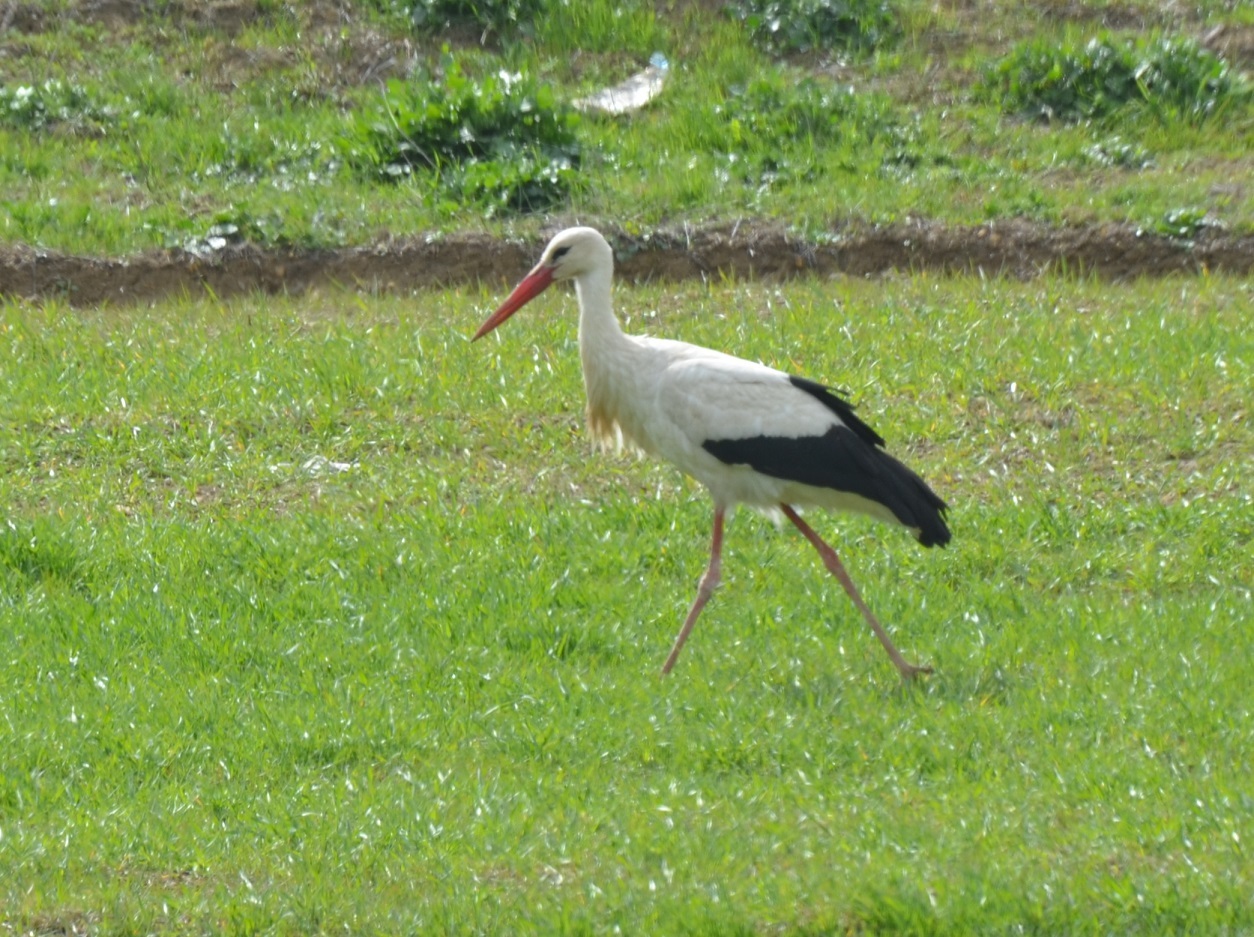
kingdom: Animalia
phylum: Chordata
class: Aves
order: Ciconiiformes
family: Ciconiidae
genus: Ciconia
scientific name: Ciconia ciconia
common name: White stork
